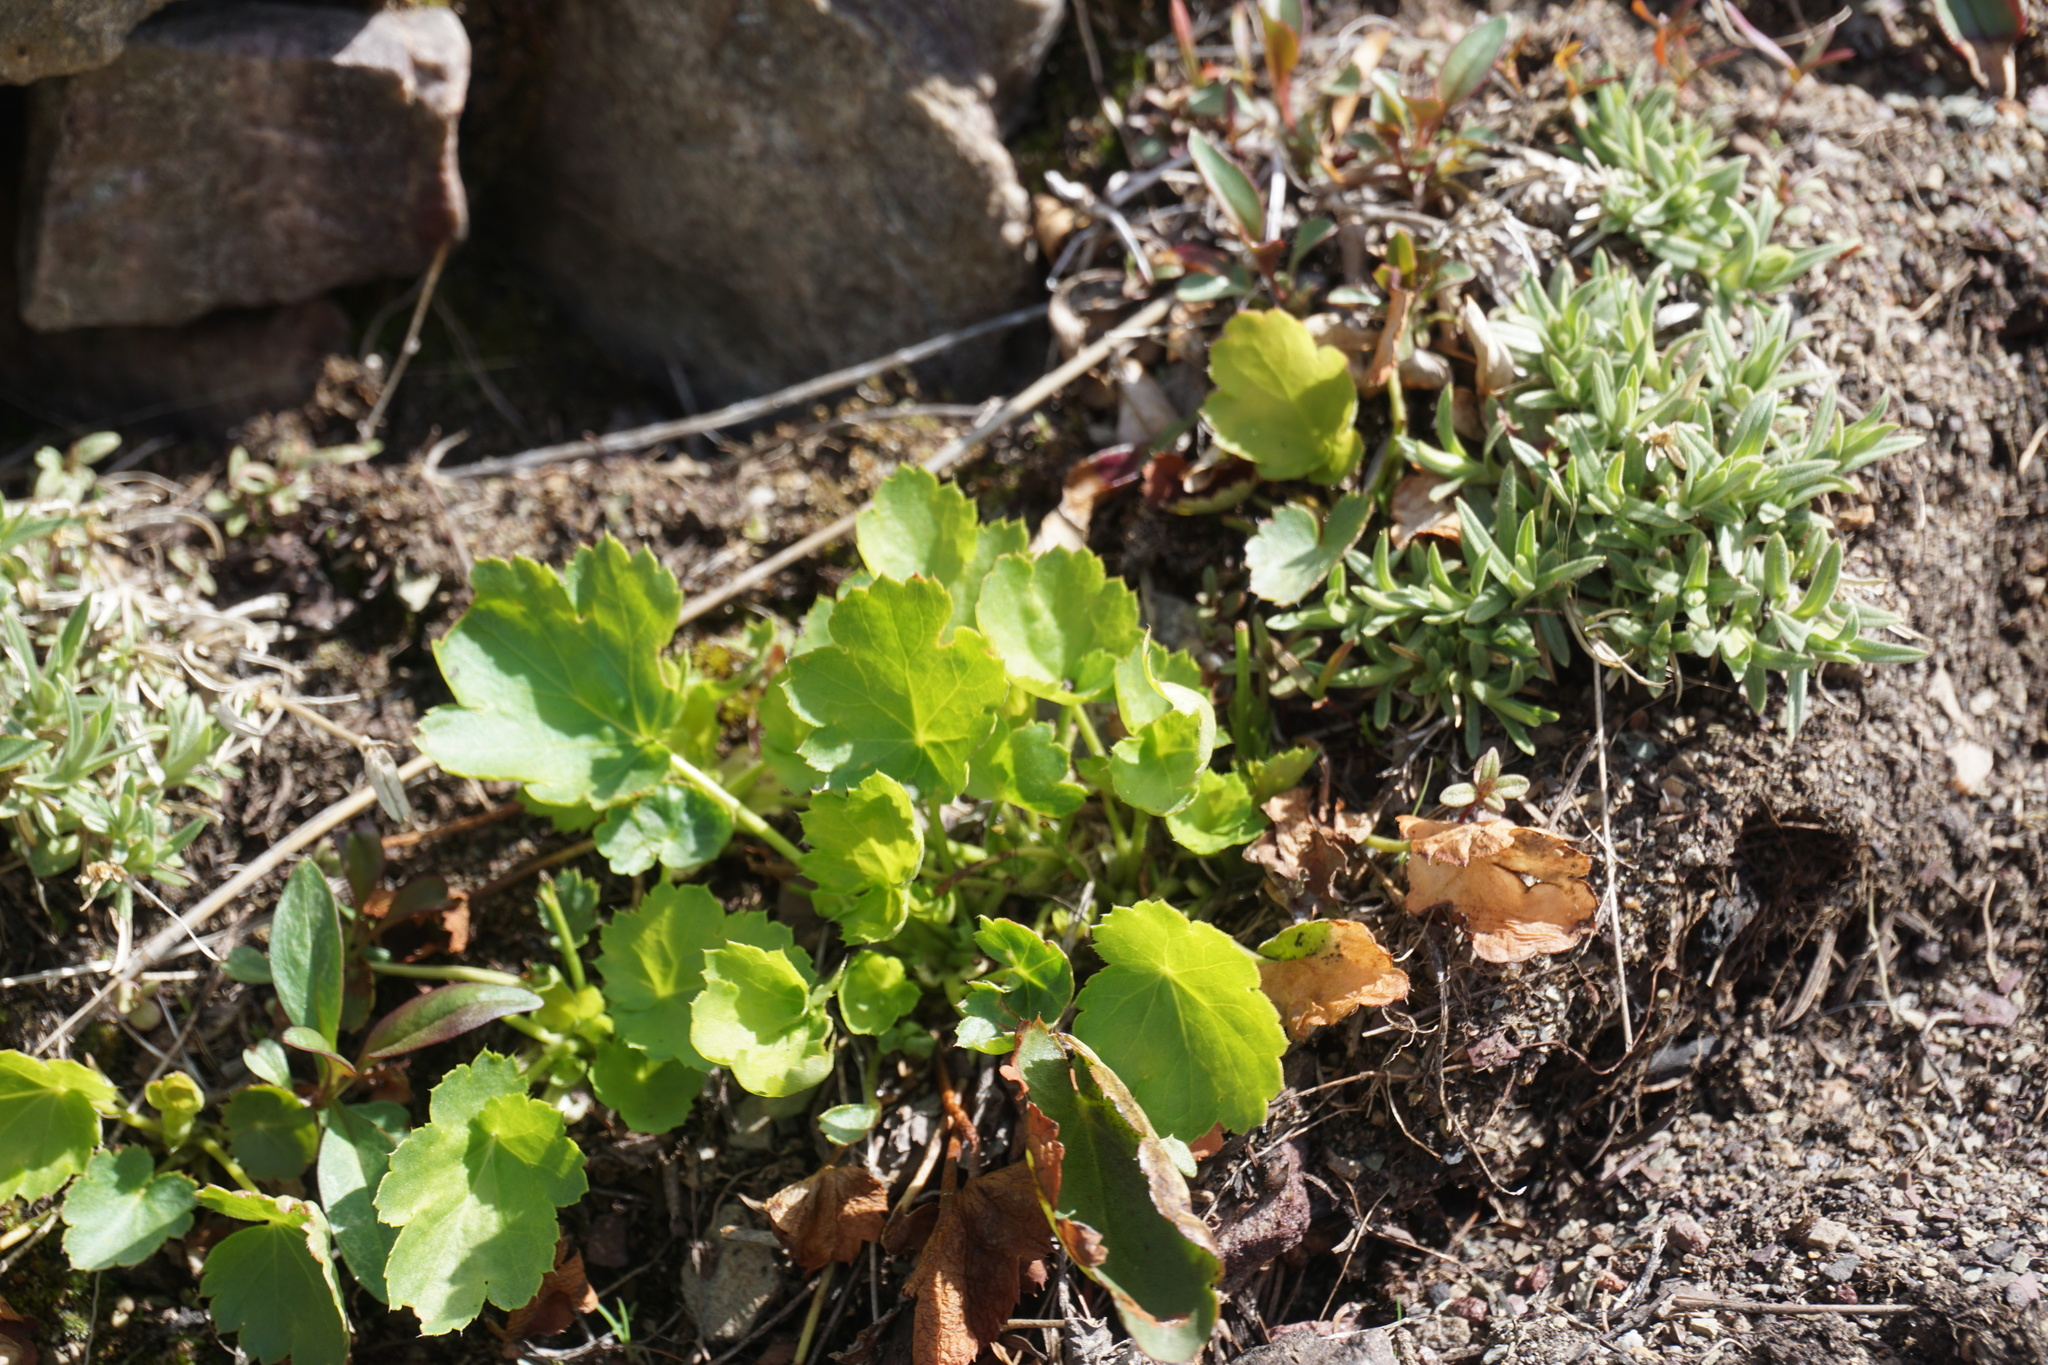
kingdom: Plantae
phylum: Tracheophyta
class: Magnoliopsida
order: Saxifragales
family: Saxifragaceae
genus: Heuchera
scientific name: Heuchera cylindrica
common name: Mat alumroot
